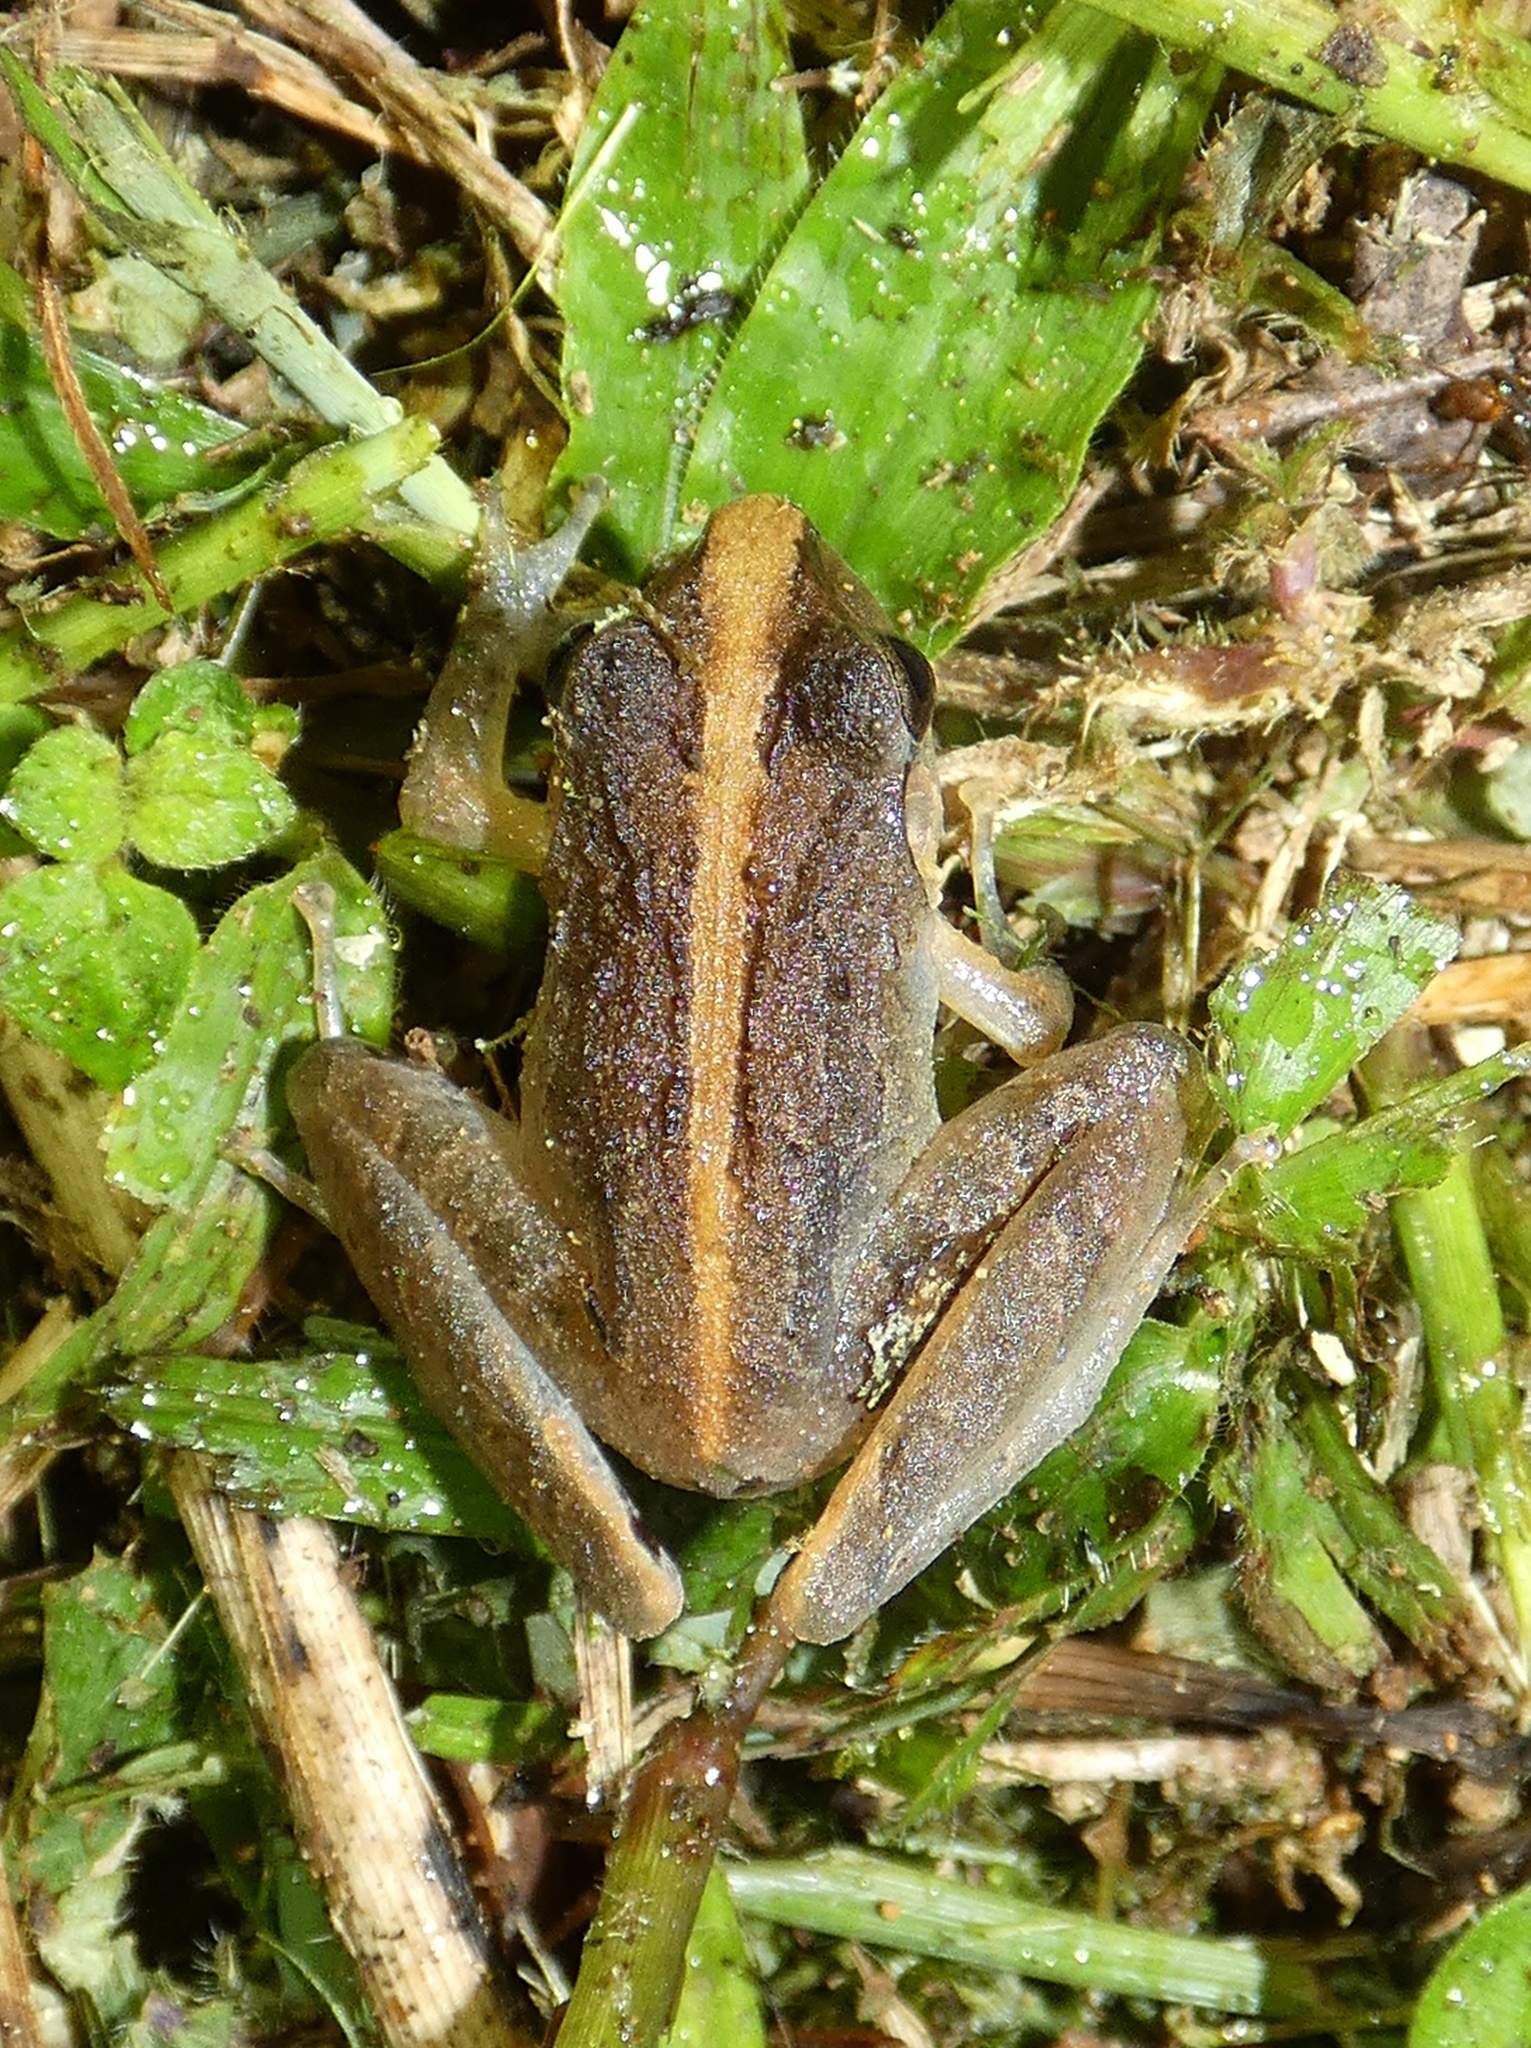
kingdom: Animalia
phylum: Chordata
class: Amphibia
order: Anura
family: Craugastoridae
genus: Craugastor
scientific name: Craugastor fitzingeri
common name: Fitzinger's robber frog
